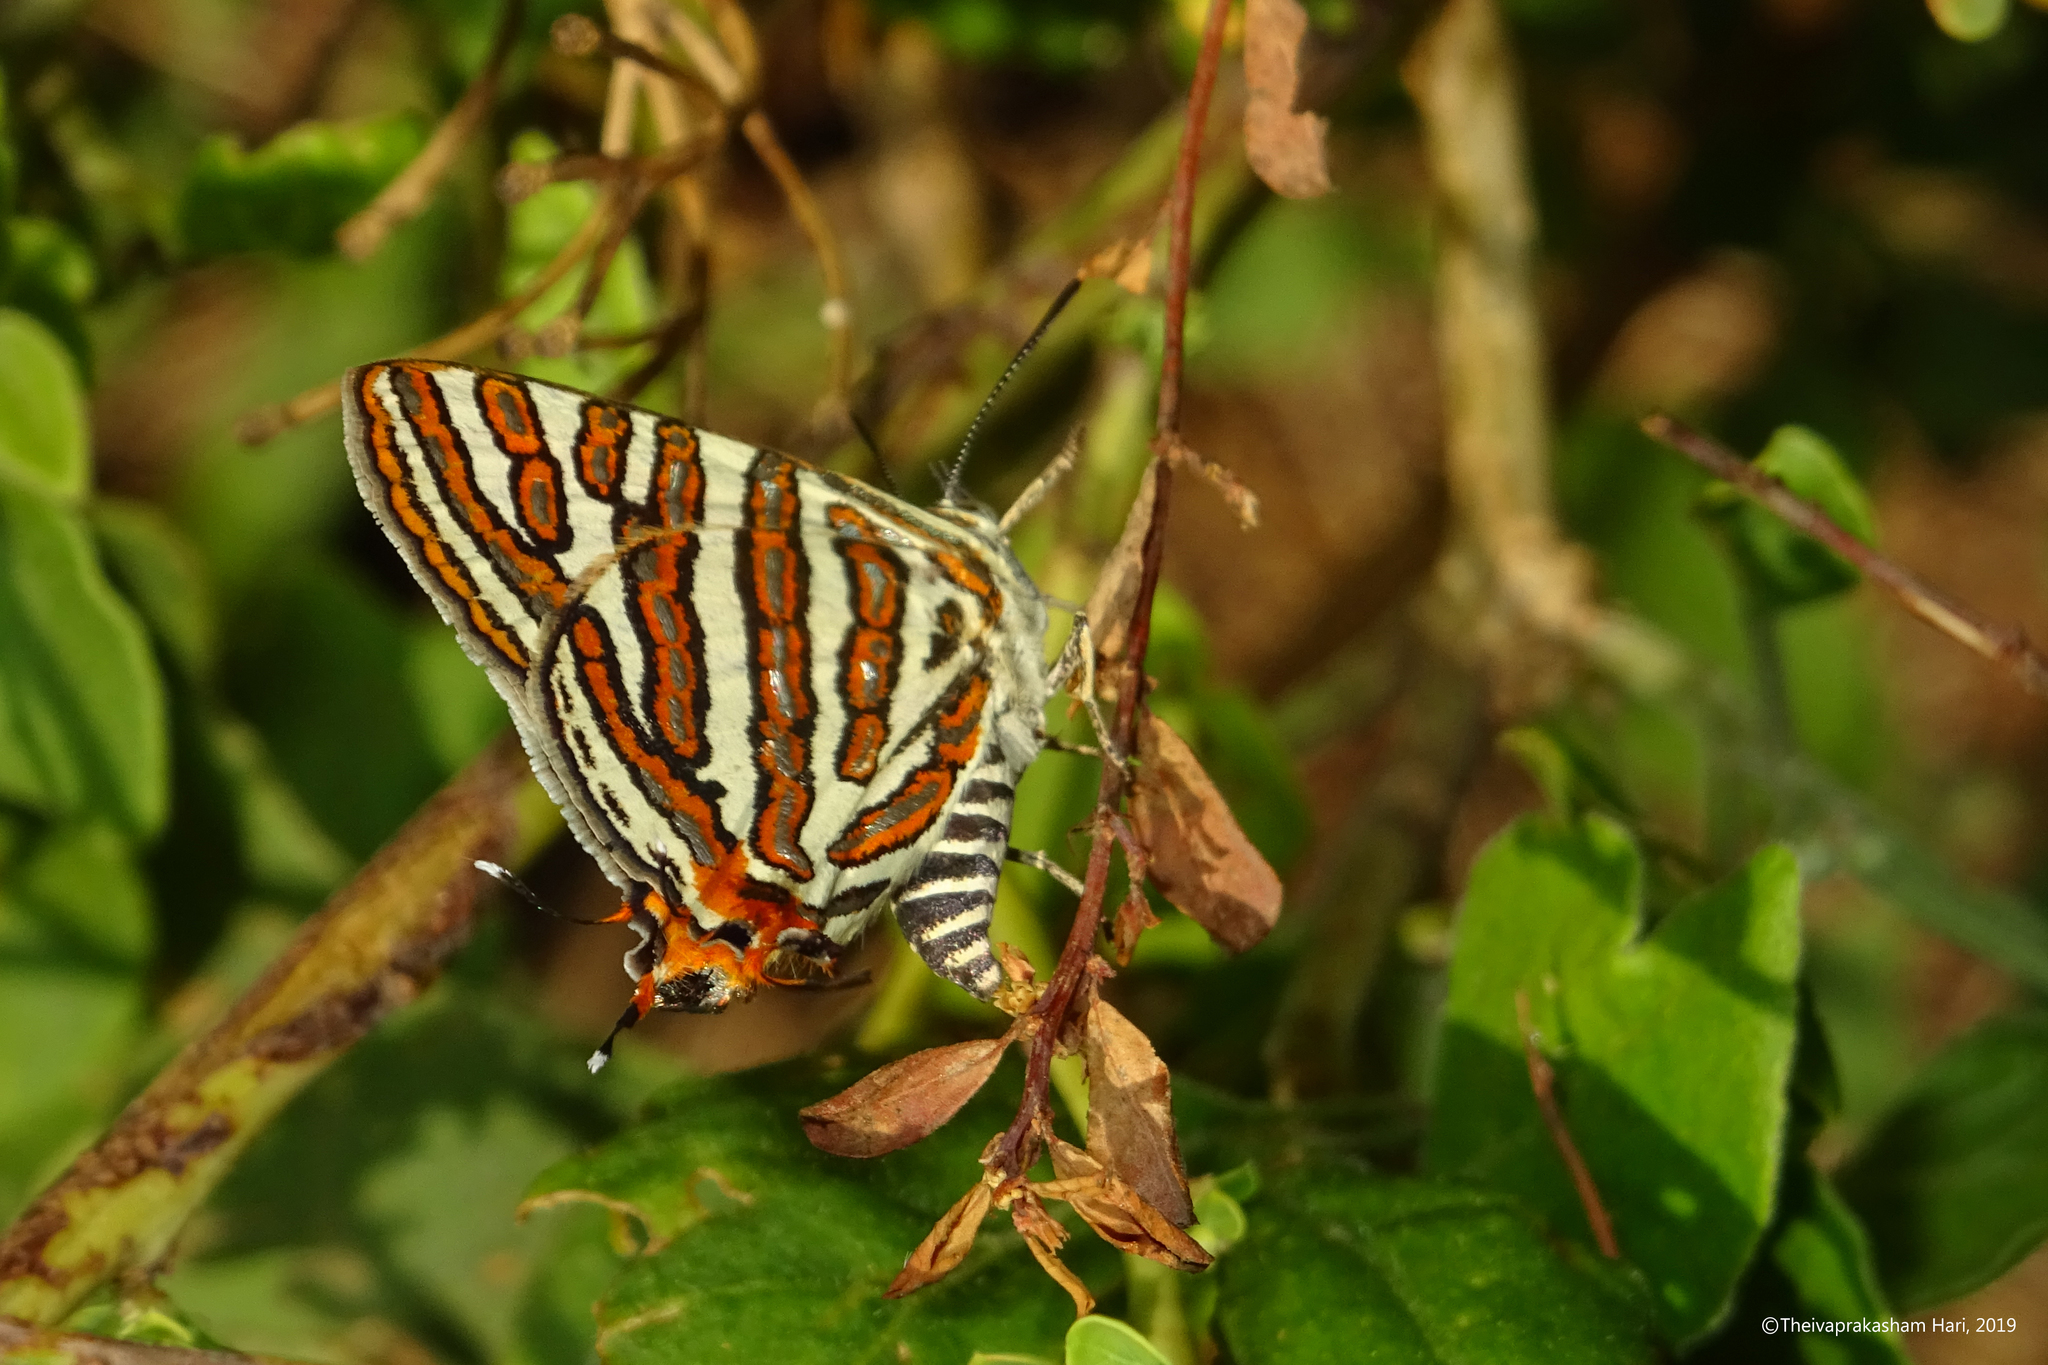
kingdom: Animalia
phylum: Arthropoda
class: Insecta
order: Lepidoptera
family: Lycaenidae
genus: Cigaritis
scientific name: Cigaritis
